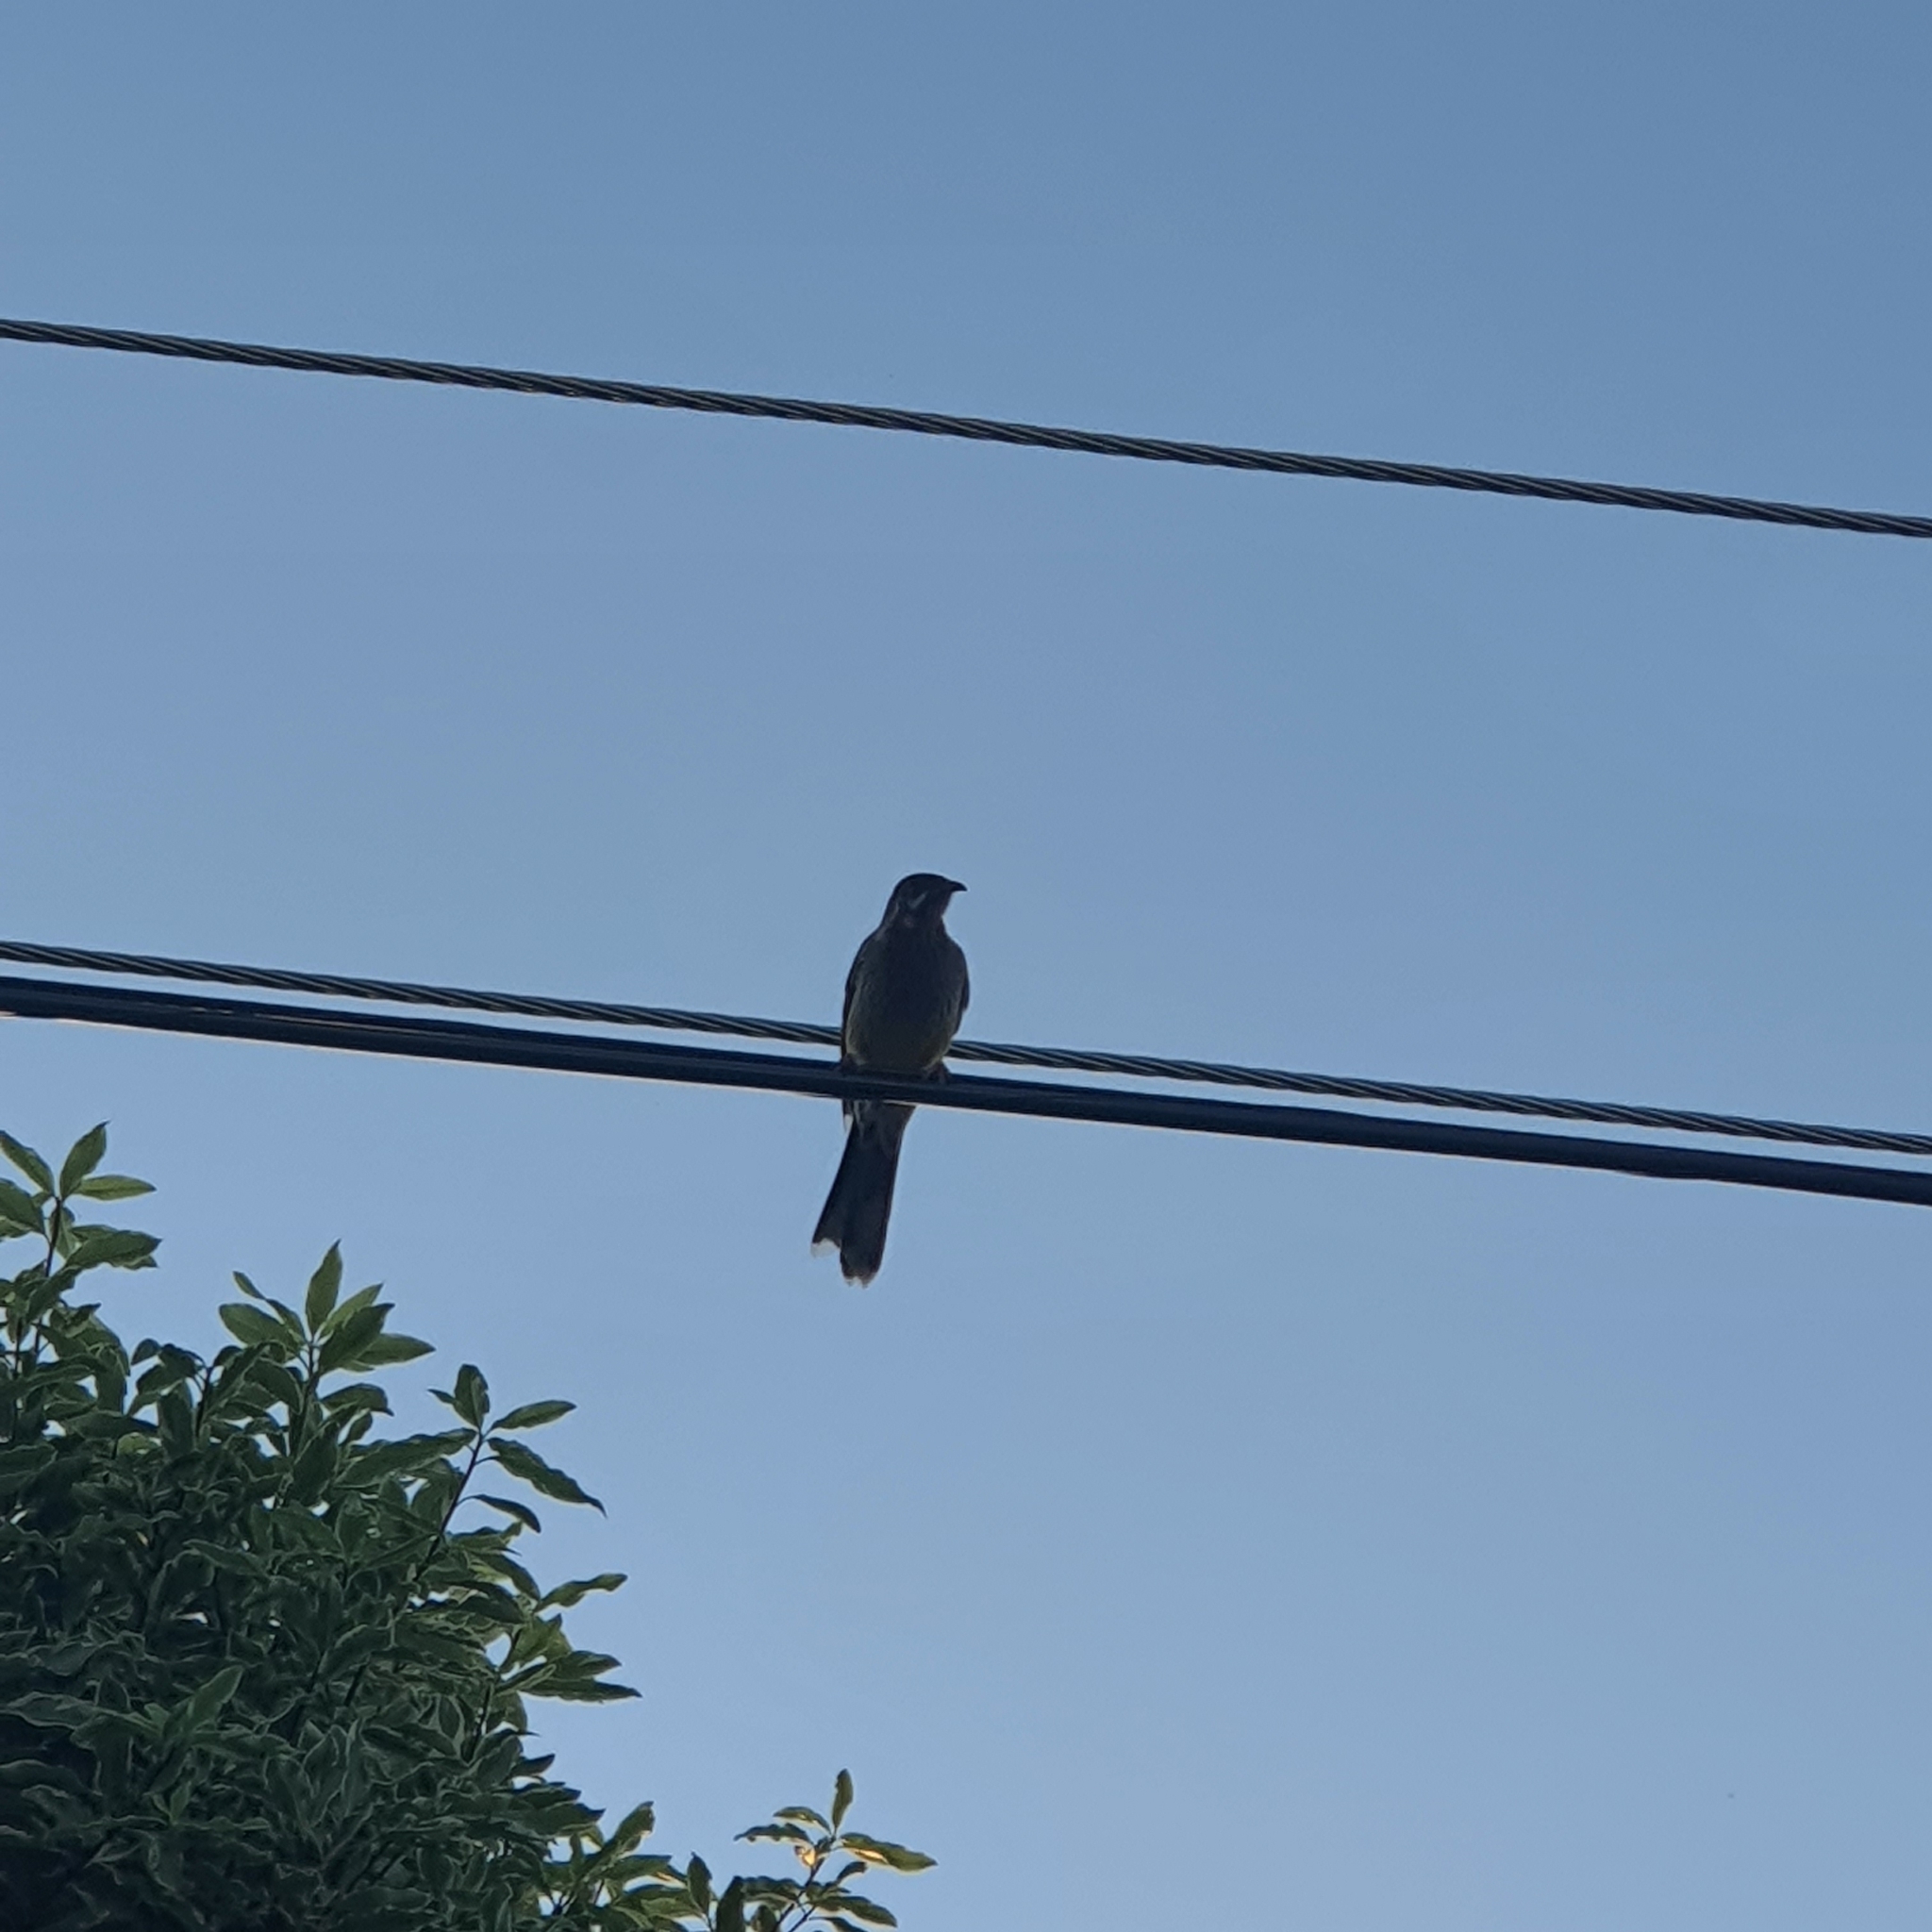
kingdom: Animalia
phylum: Chordata
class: Aves
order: Passeriformes
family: Meliphagidae
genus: Anthochaera
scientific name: Anthochaera carunculata
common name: Red wattlebird
